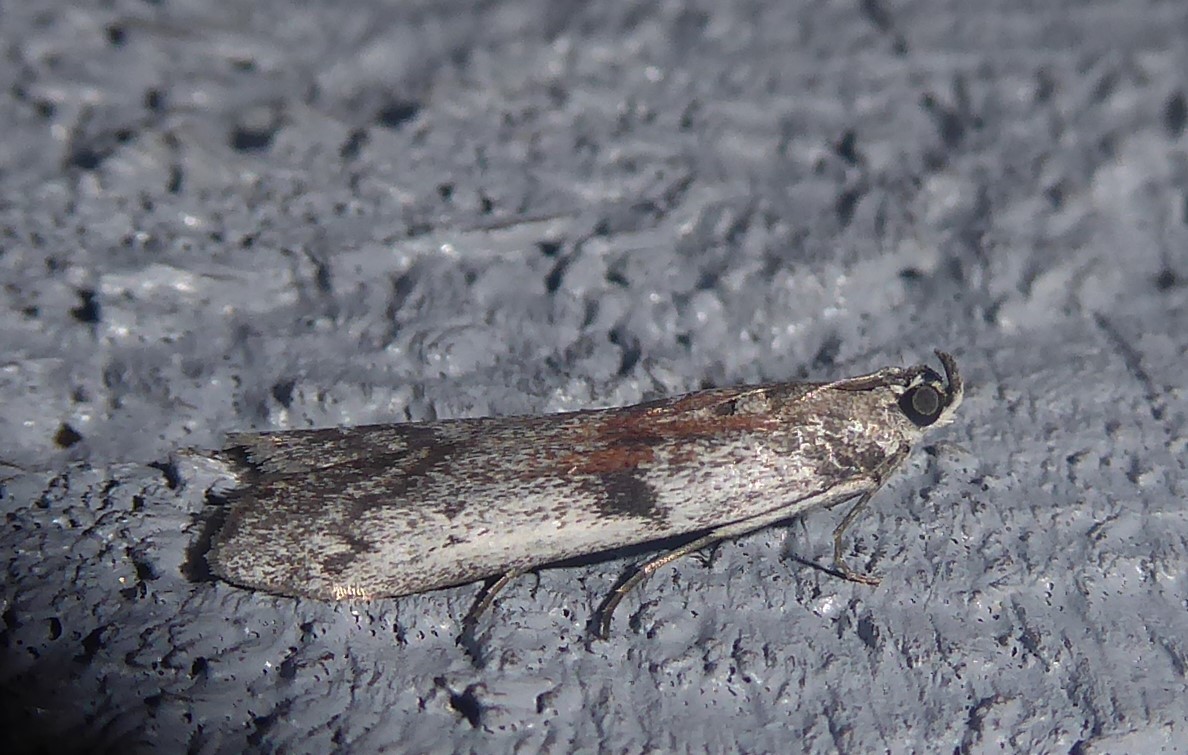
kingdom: Animalia
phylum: Arthropoda
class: Insecta
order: Lepidoptera
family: Pyralidae
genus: Patagoniodes
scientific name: Patagoniodes farinaria
